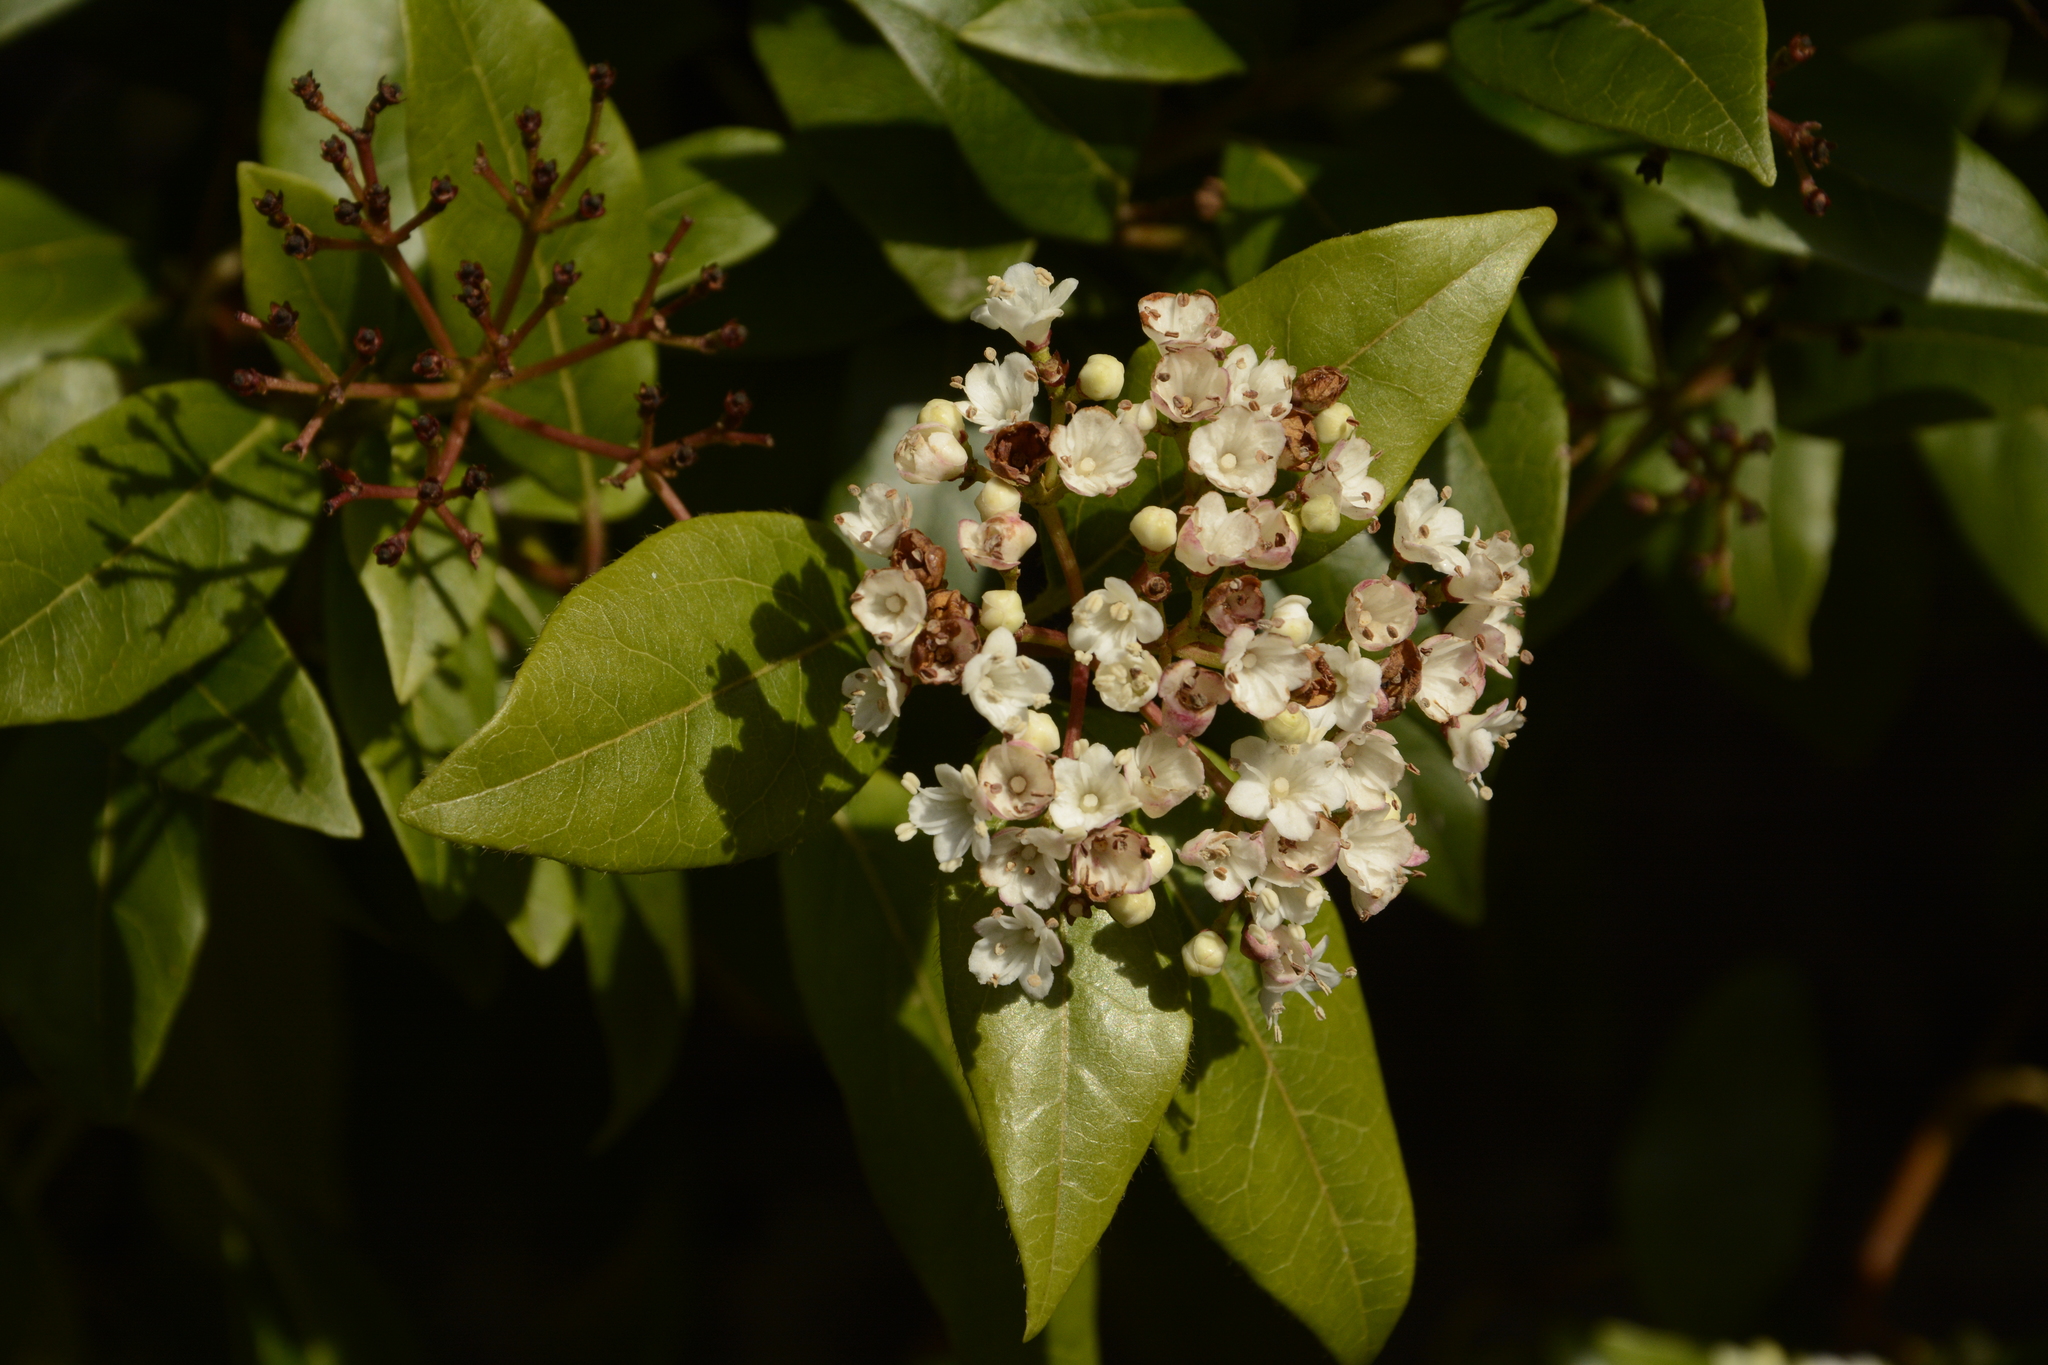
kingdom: Plantae
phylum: Tracheophyta
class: Magnoliopsida
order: Dipsacales
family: Viburnaceae
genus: Viburnum
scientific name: Viburnum tinus
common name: Laurustinus
